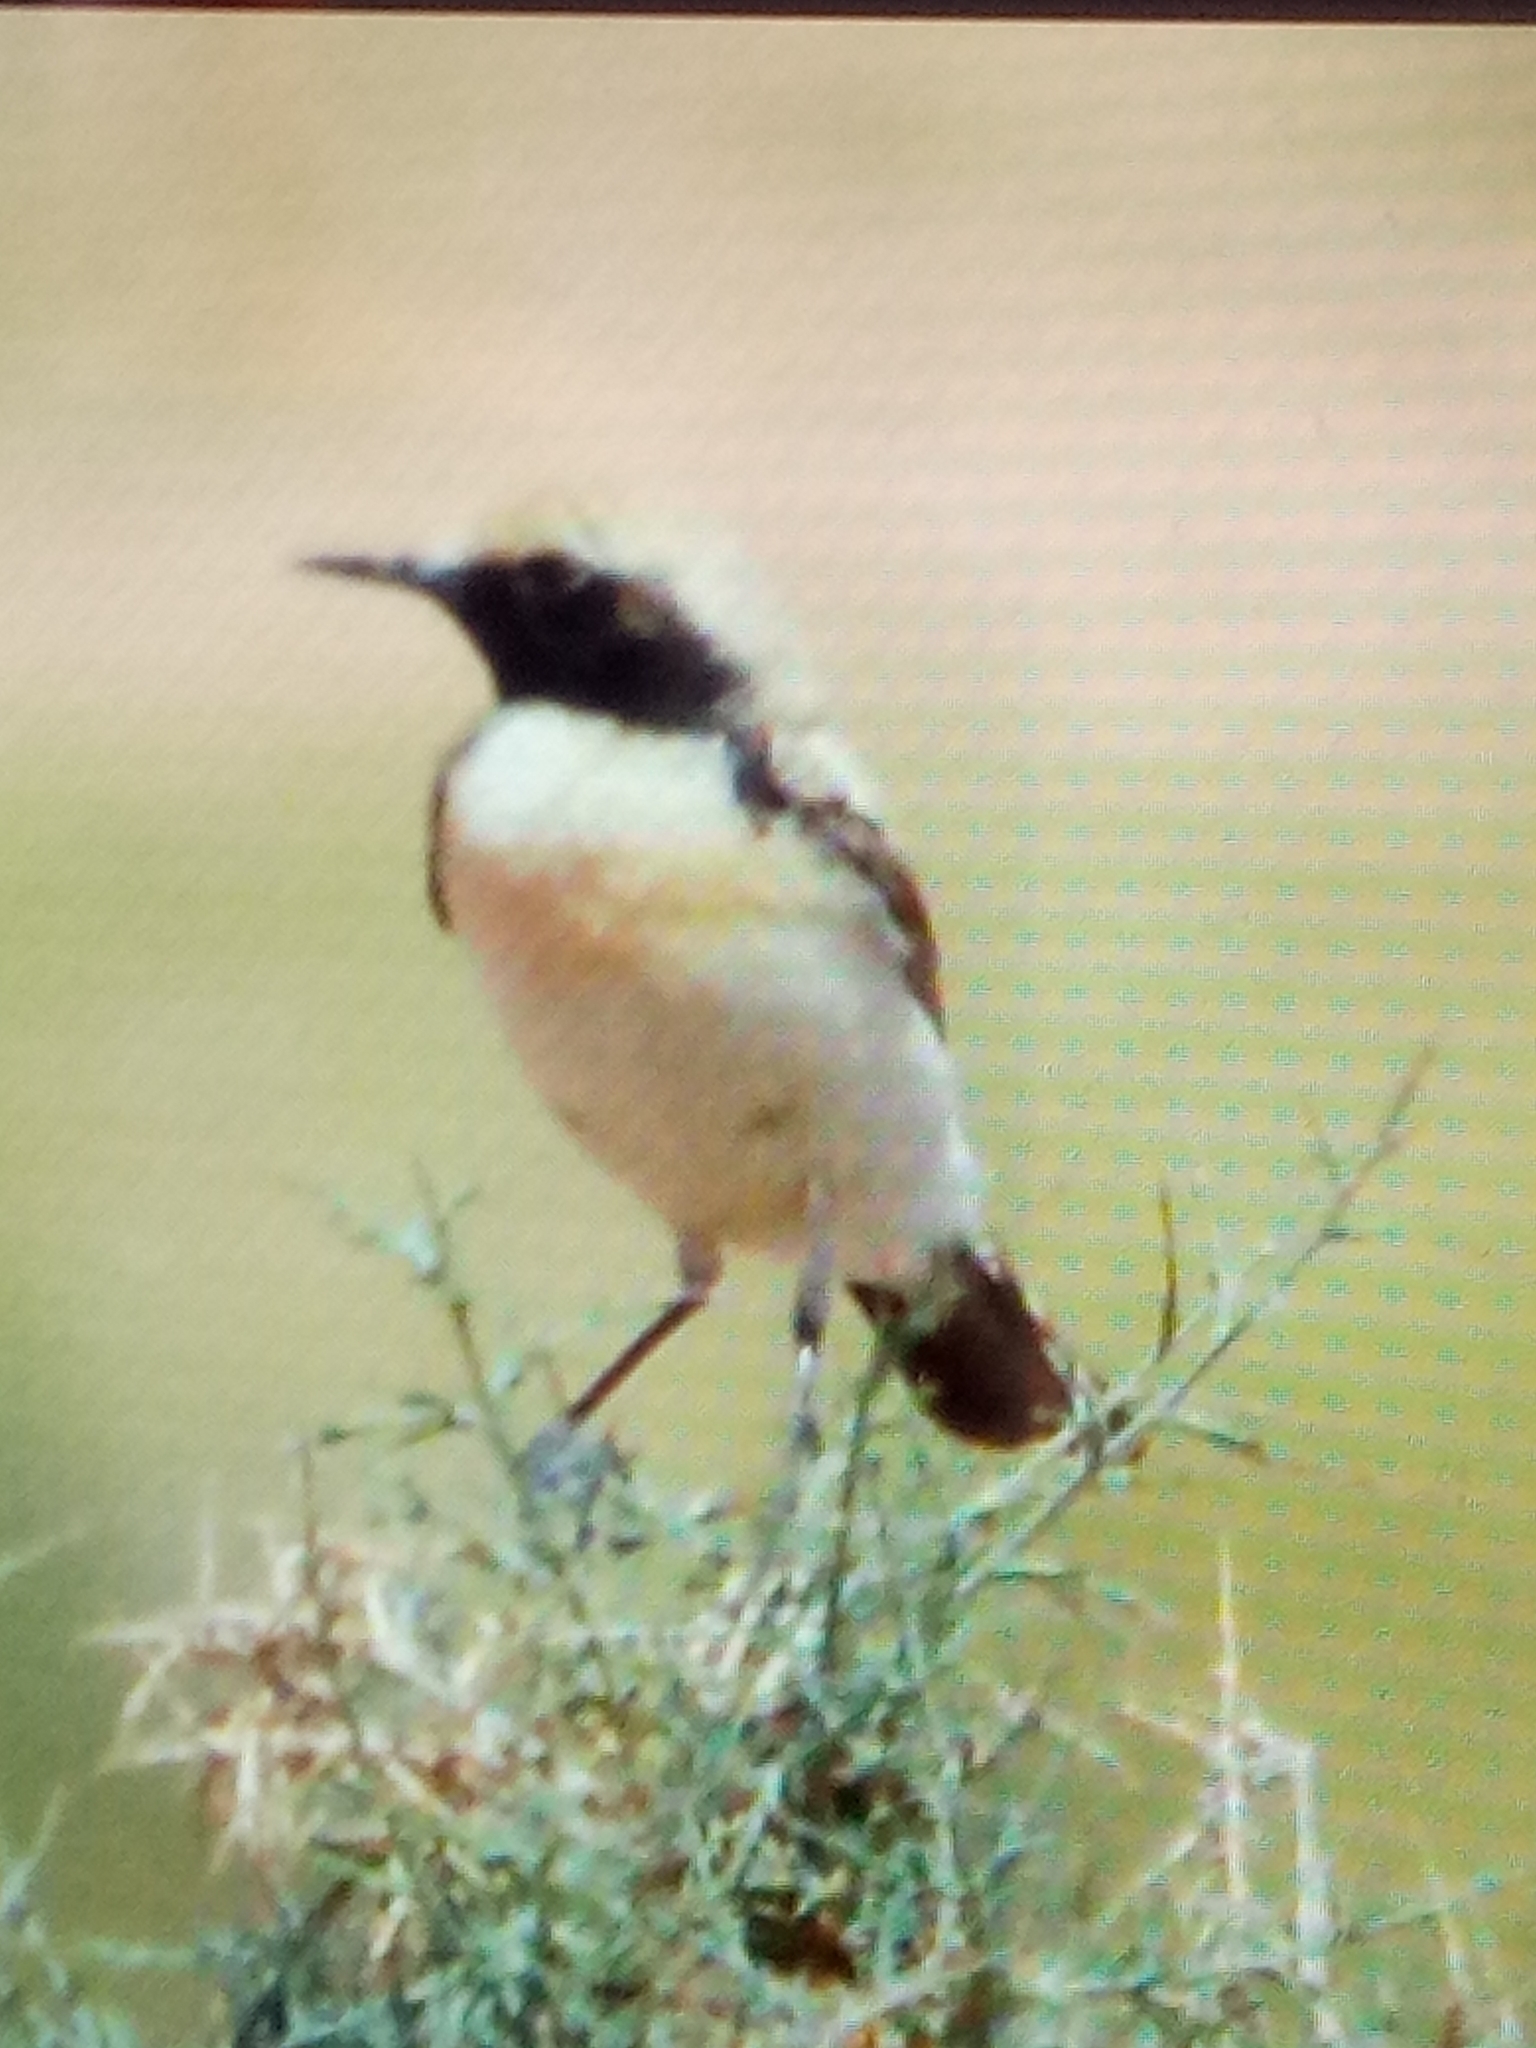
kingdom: Animalia
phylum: Chordata
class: Aves
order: Passeriformes
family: Muscicapidae
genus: Oenanthe
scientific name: Oenanthe deserti
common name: Desert wheatear
